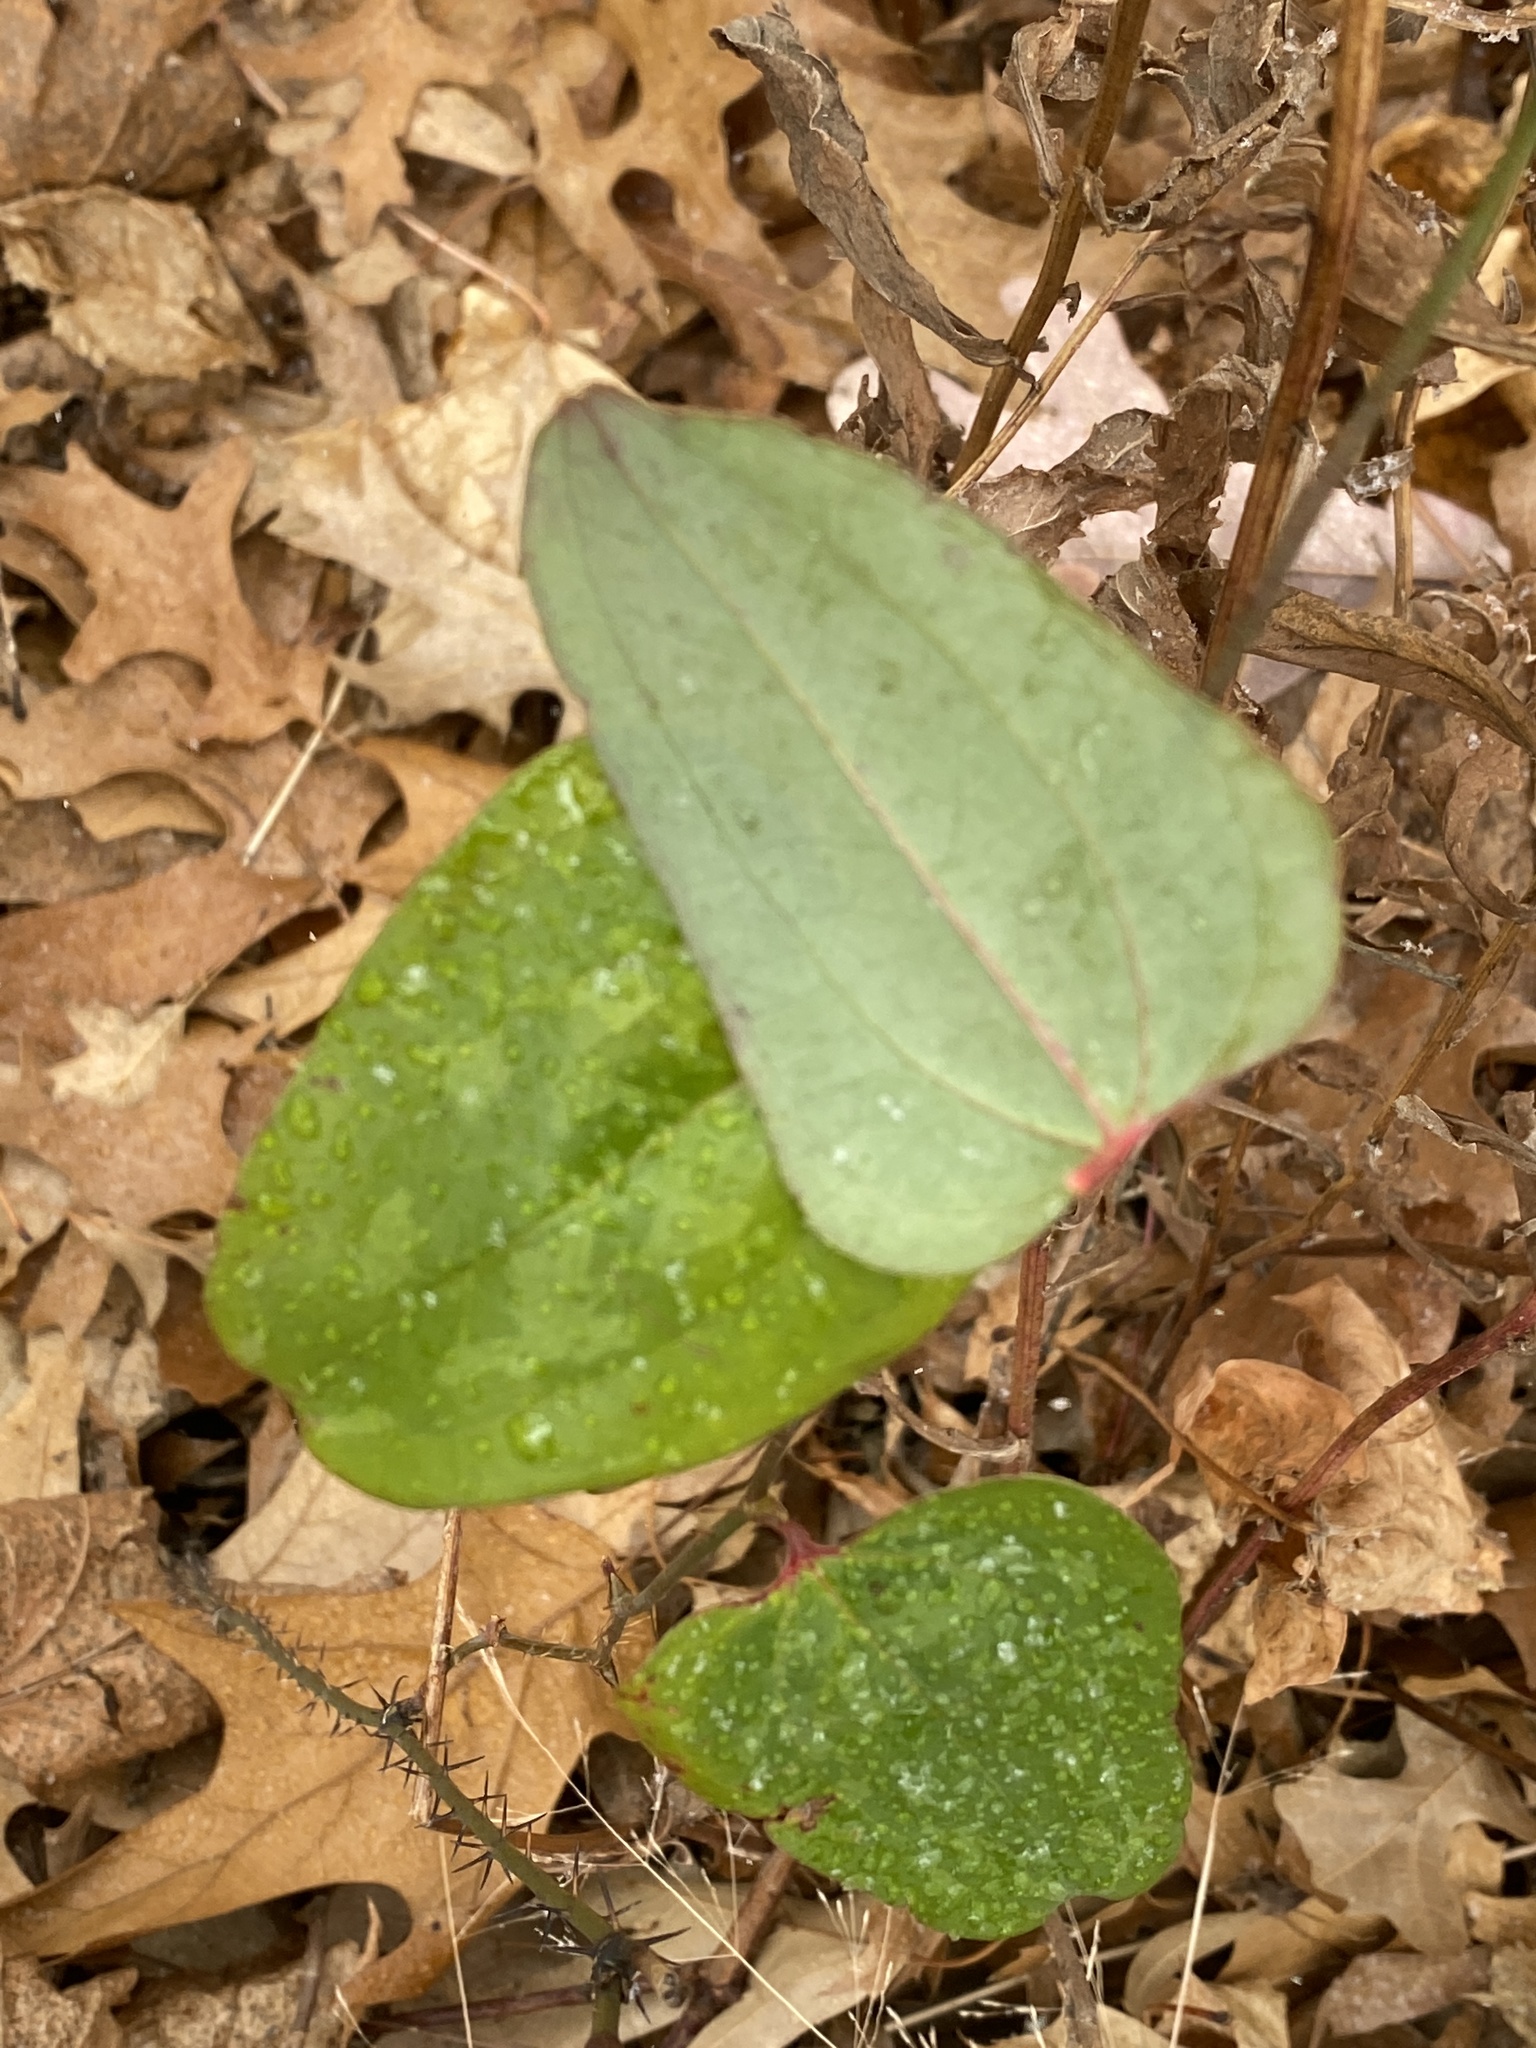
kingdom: Plantae
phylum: Tracheophyta
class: Liliopsida
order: Liliales
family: Smilacaceae
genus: Smilax
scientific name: Smilax glauca
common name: Cat greenbrier
